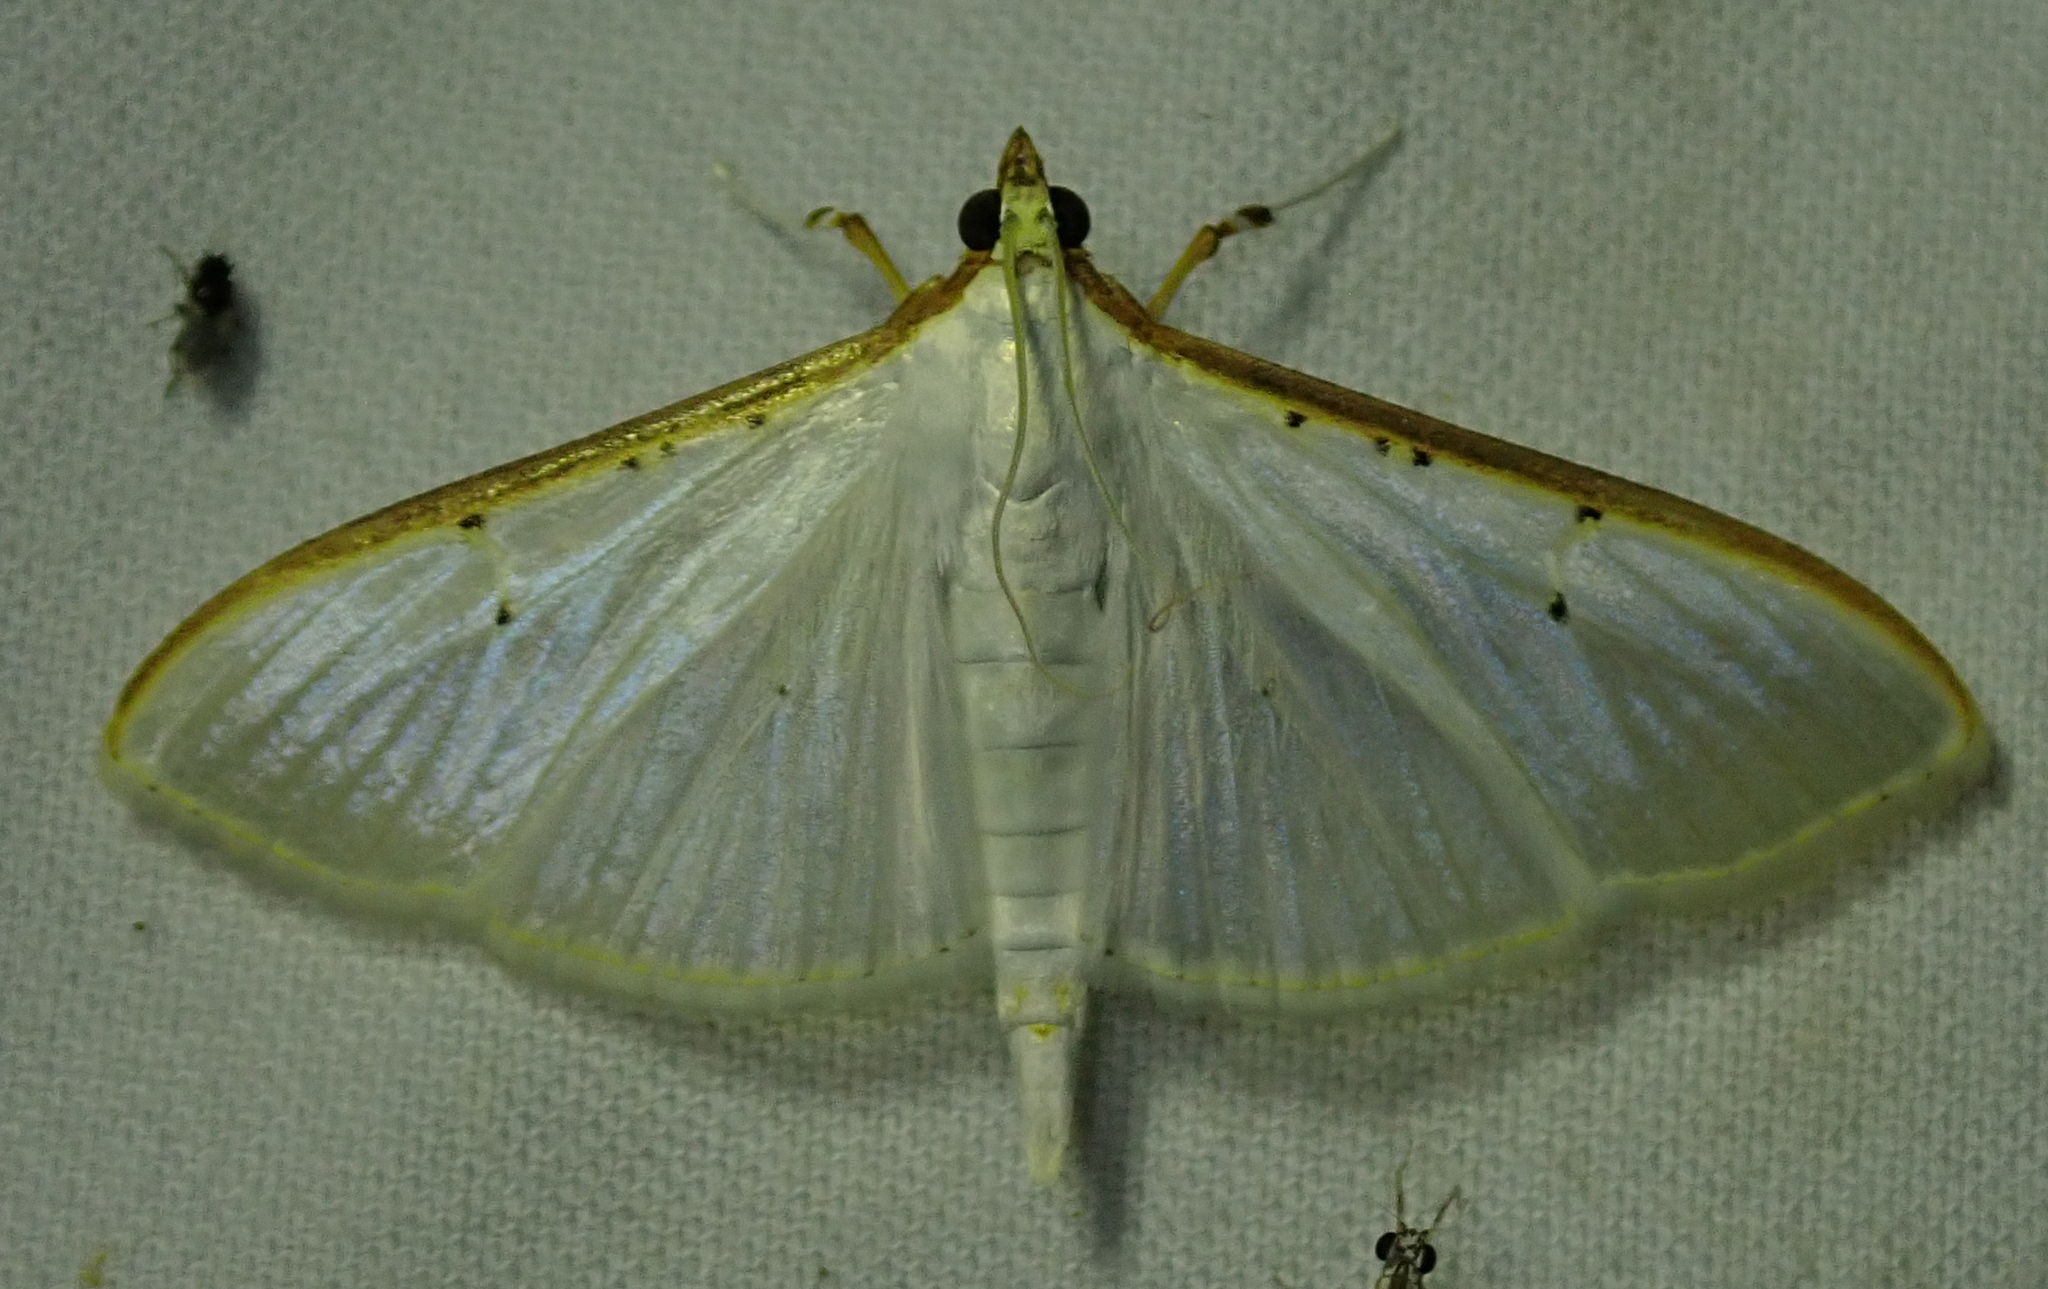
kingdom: Animalia
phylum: Arthropoda
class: Insecta
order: Lepidoptera
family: Crambidae
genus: Palpita
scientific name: Palpita vitrealis
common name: Olive-tree pearl
